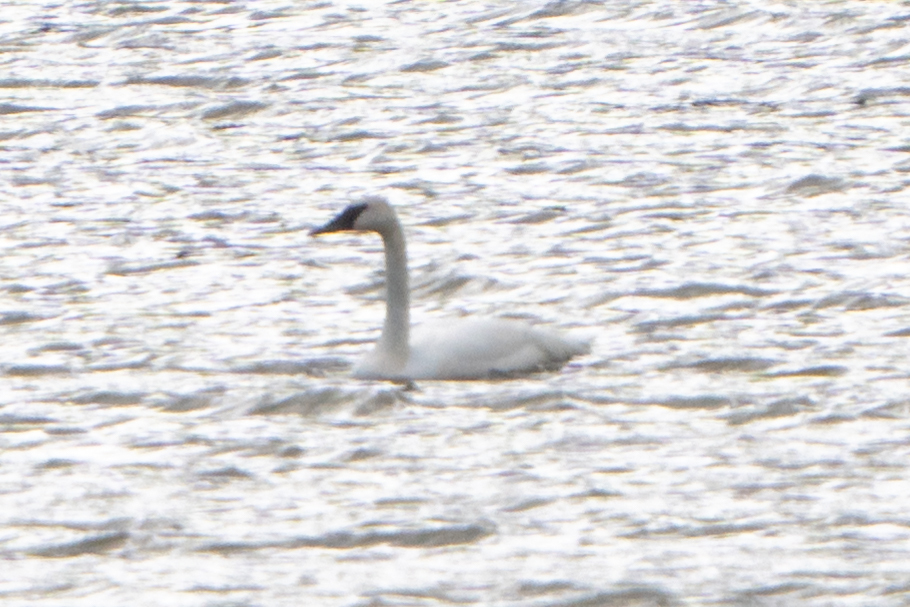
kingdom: Animalia
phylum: Chordata
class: Aves
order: Anseriformes
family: Anatidae
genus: Cygnus
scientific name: Cygnus buccinator
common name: Trumpeter swan
